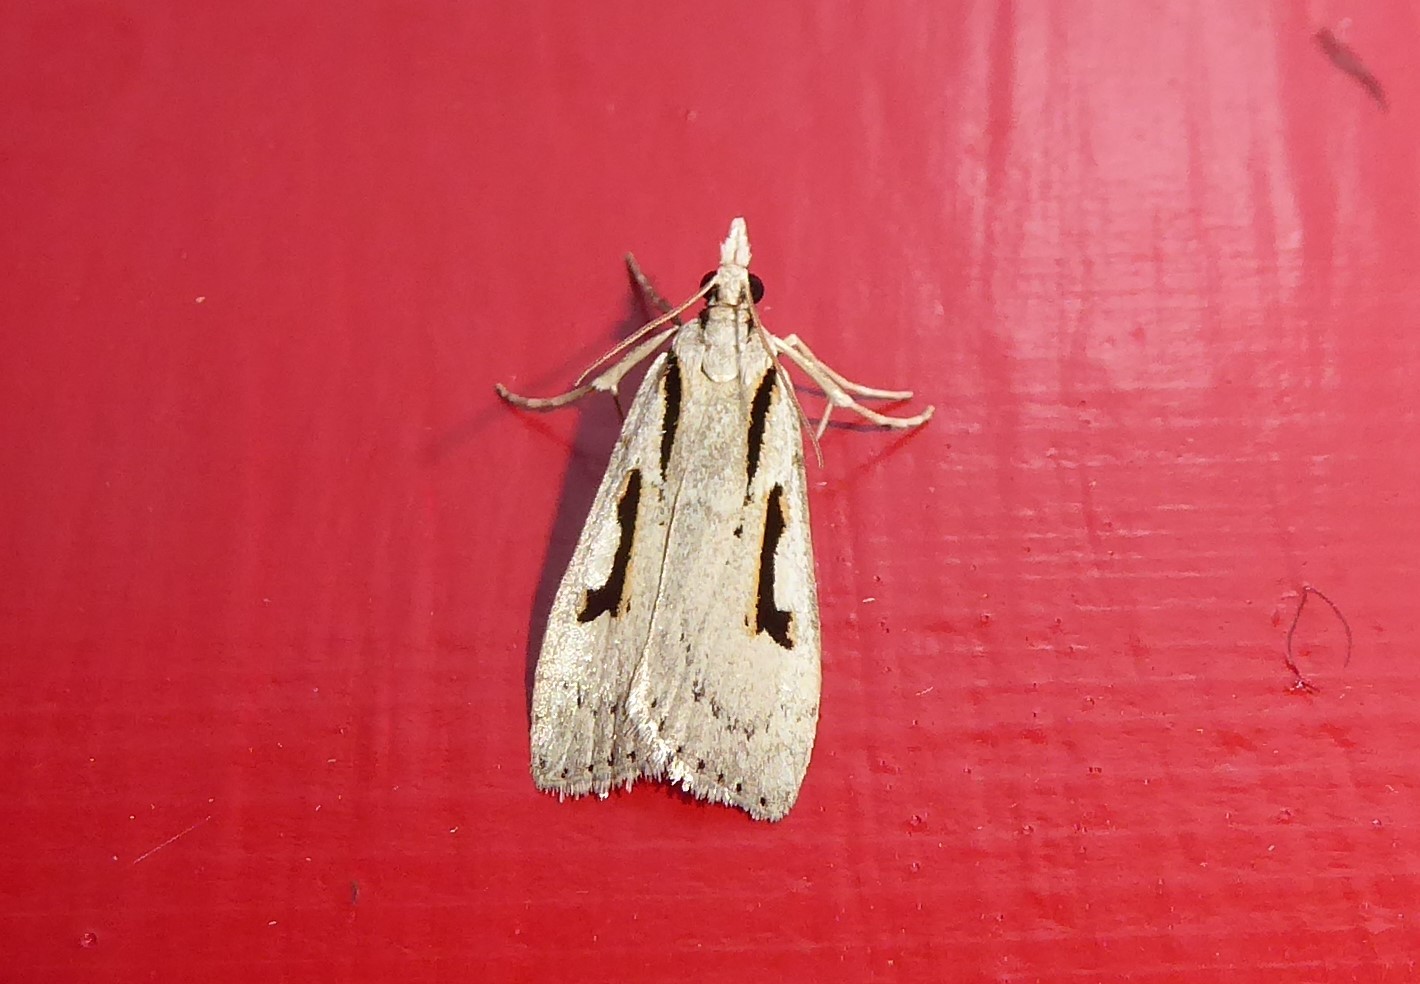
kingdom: Animalia
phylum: Arthropoda
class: Insecta
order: Lepidoptera
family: Crambidae
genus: Scoparia
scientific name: Scoparia rotuellus
